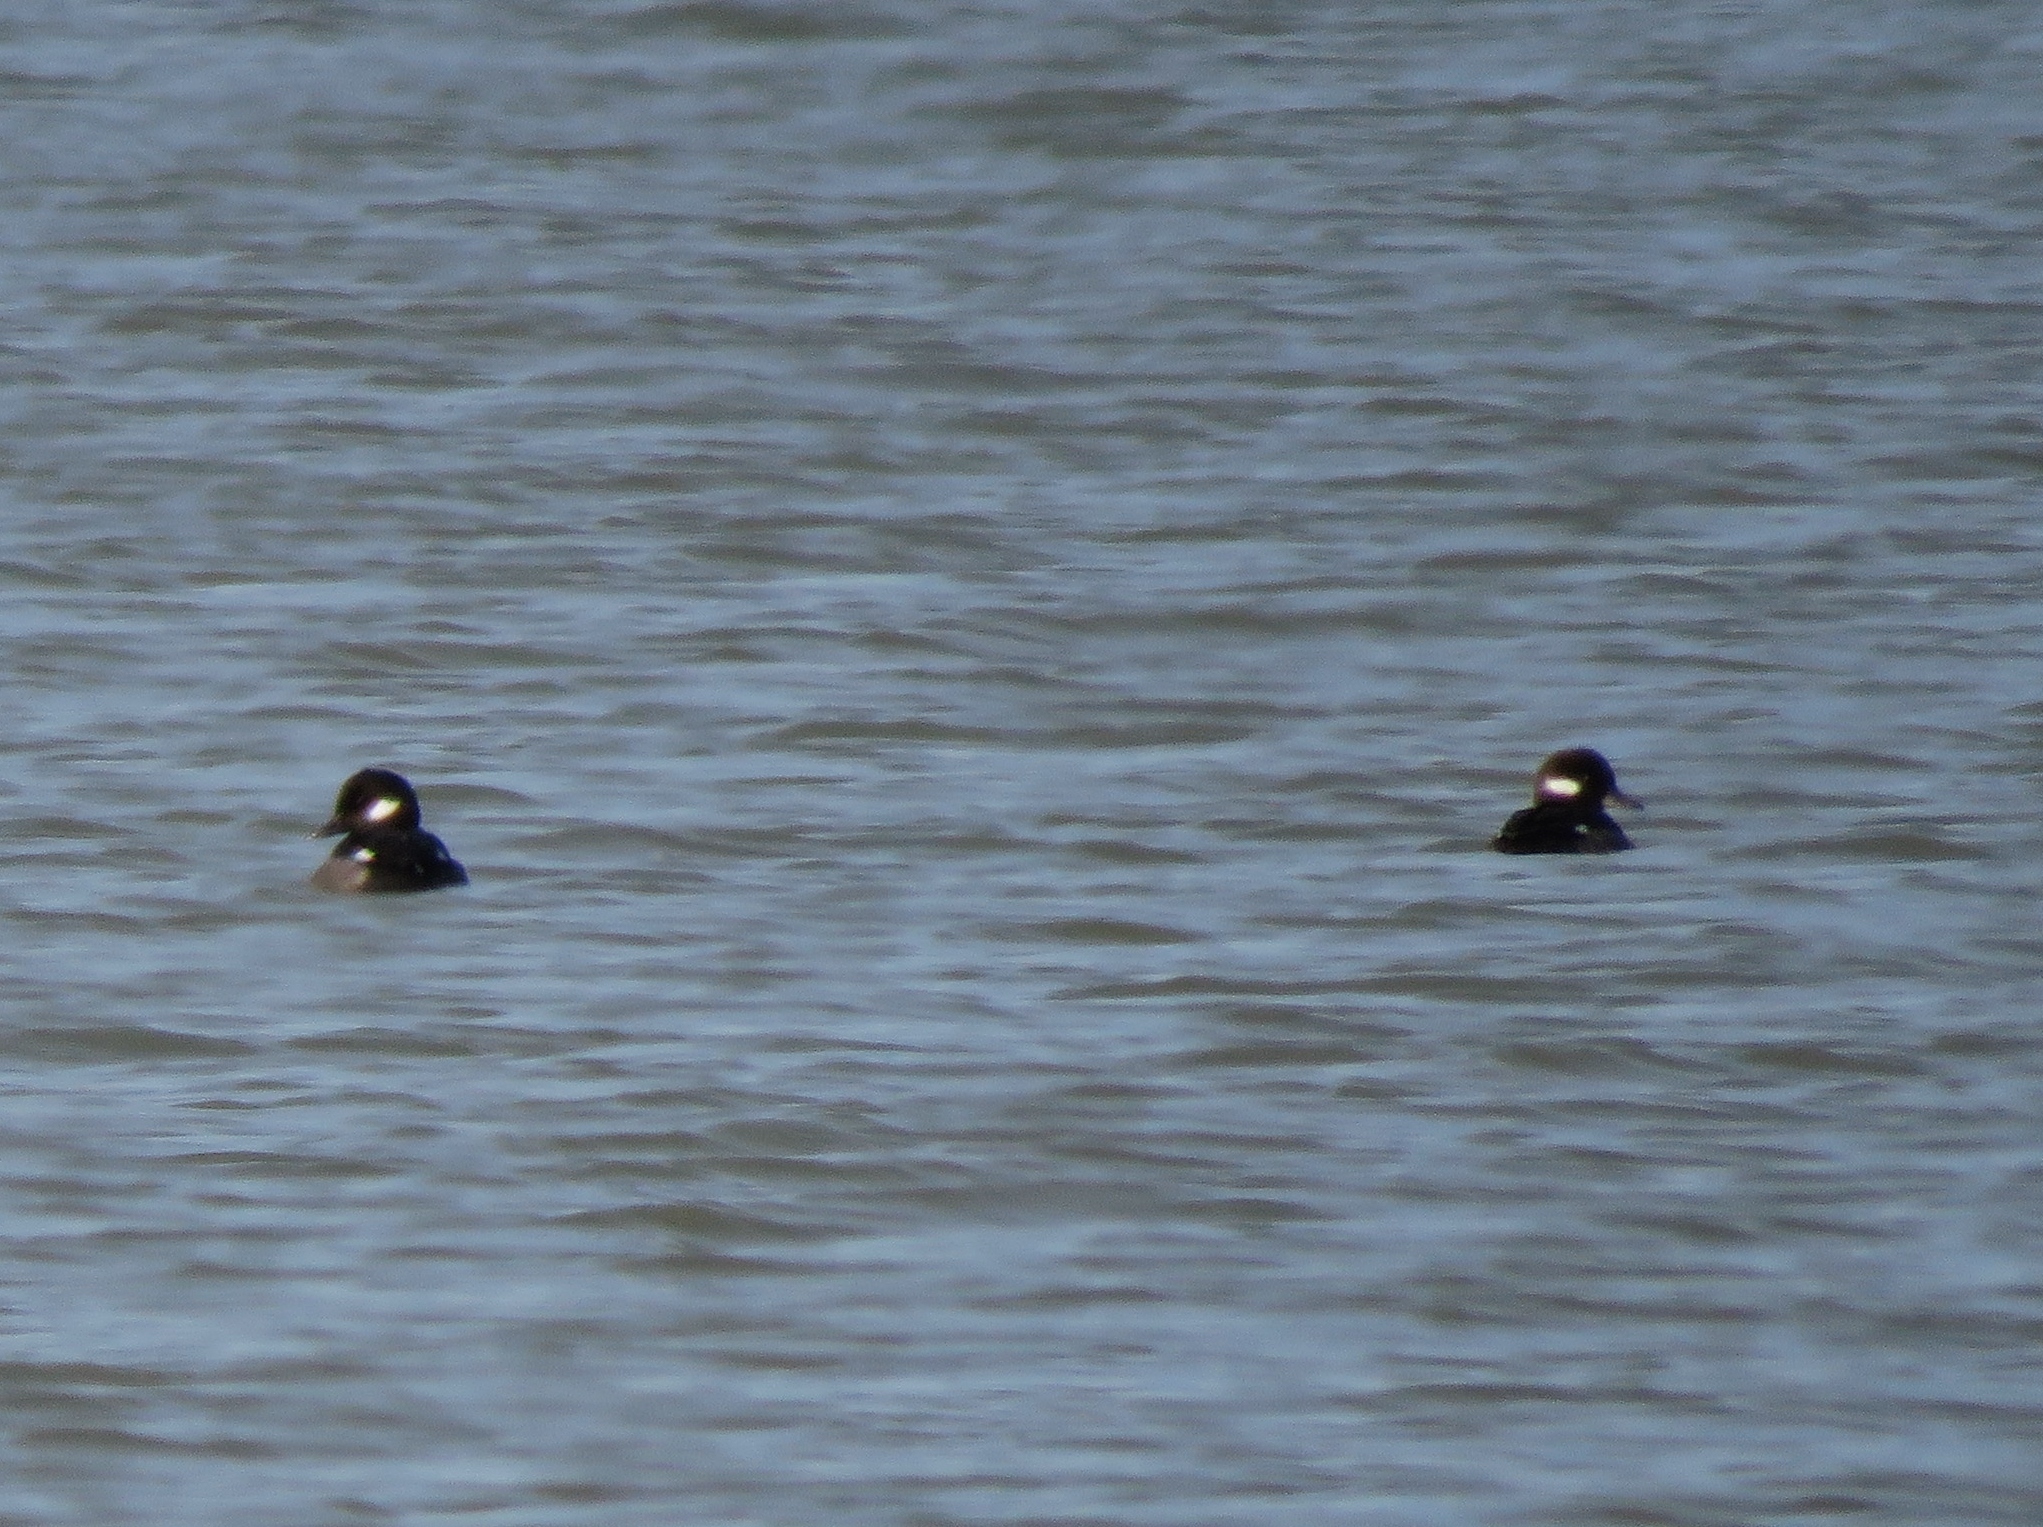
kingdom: Animalia
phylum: Chordata
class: Aves
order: Anseriformes
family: Anatidae
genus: Bucephala
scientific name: Bucephala albeola
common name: Bufflehead
